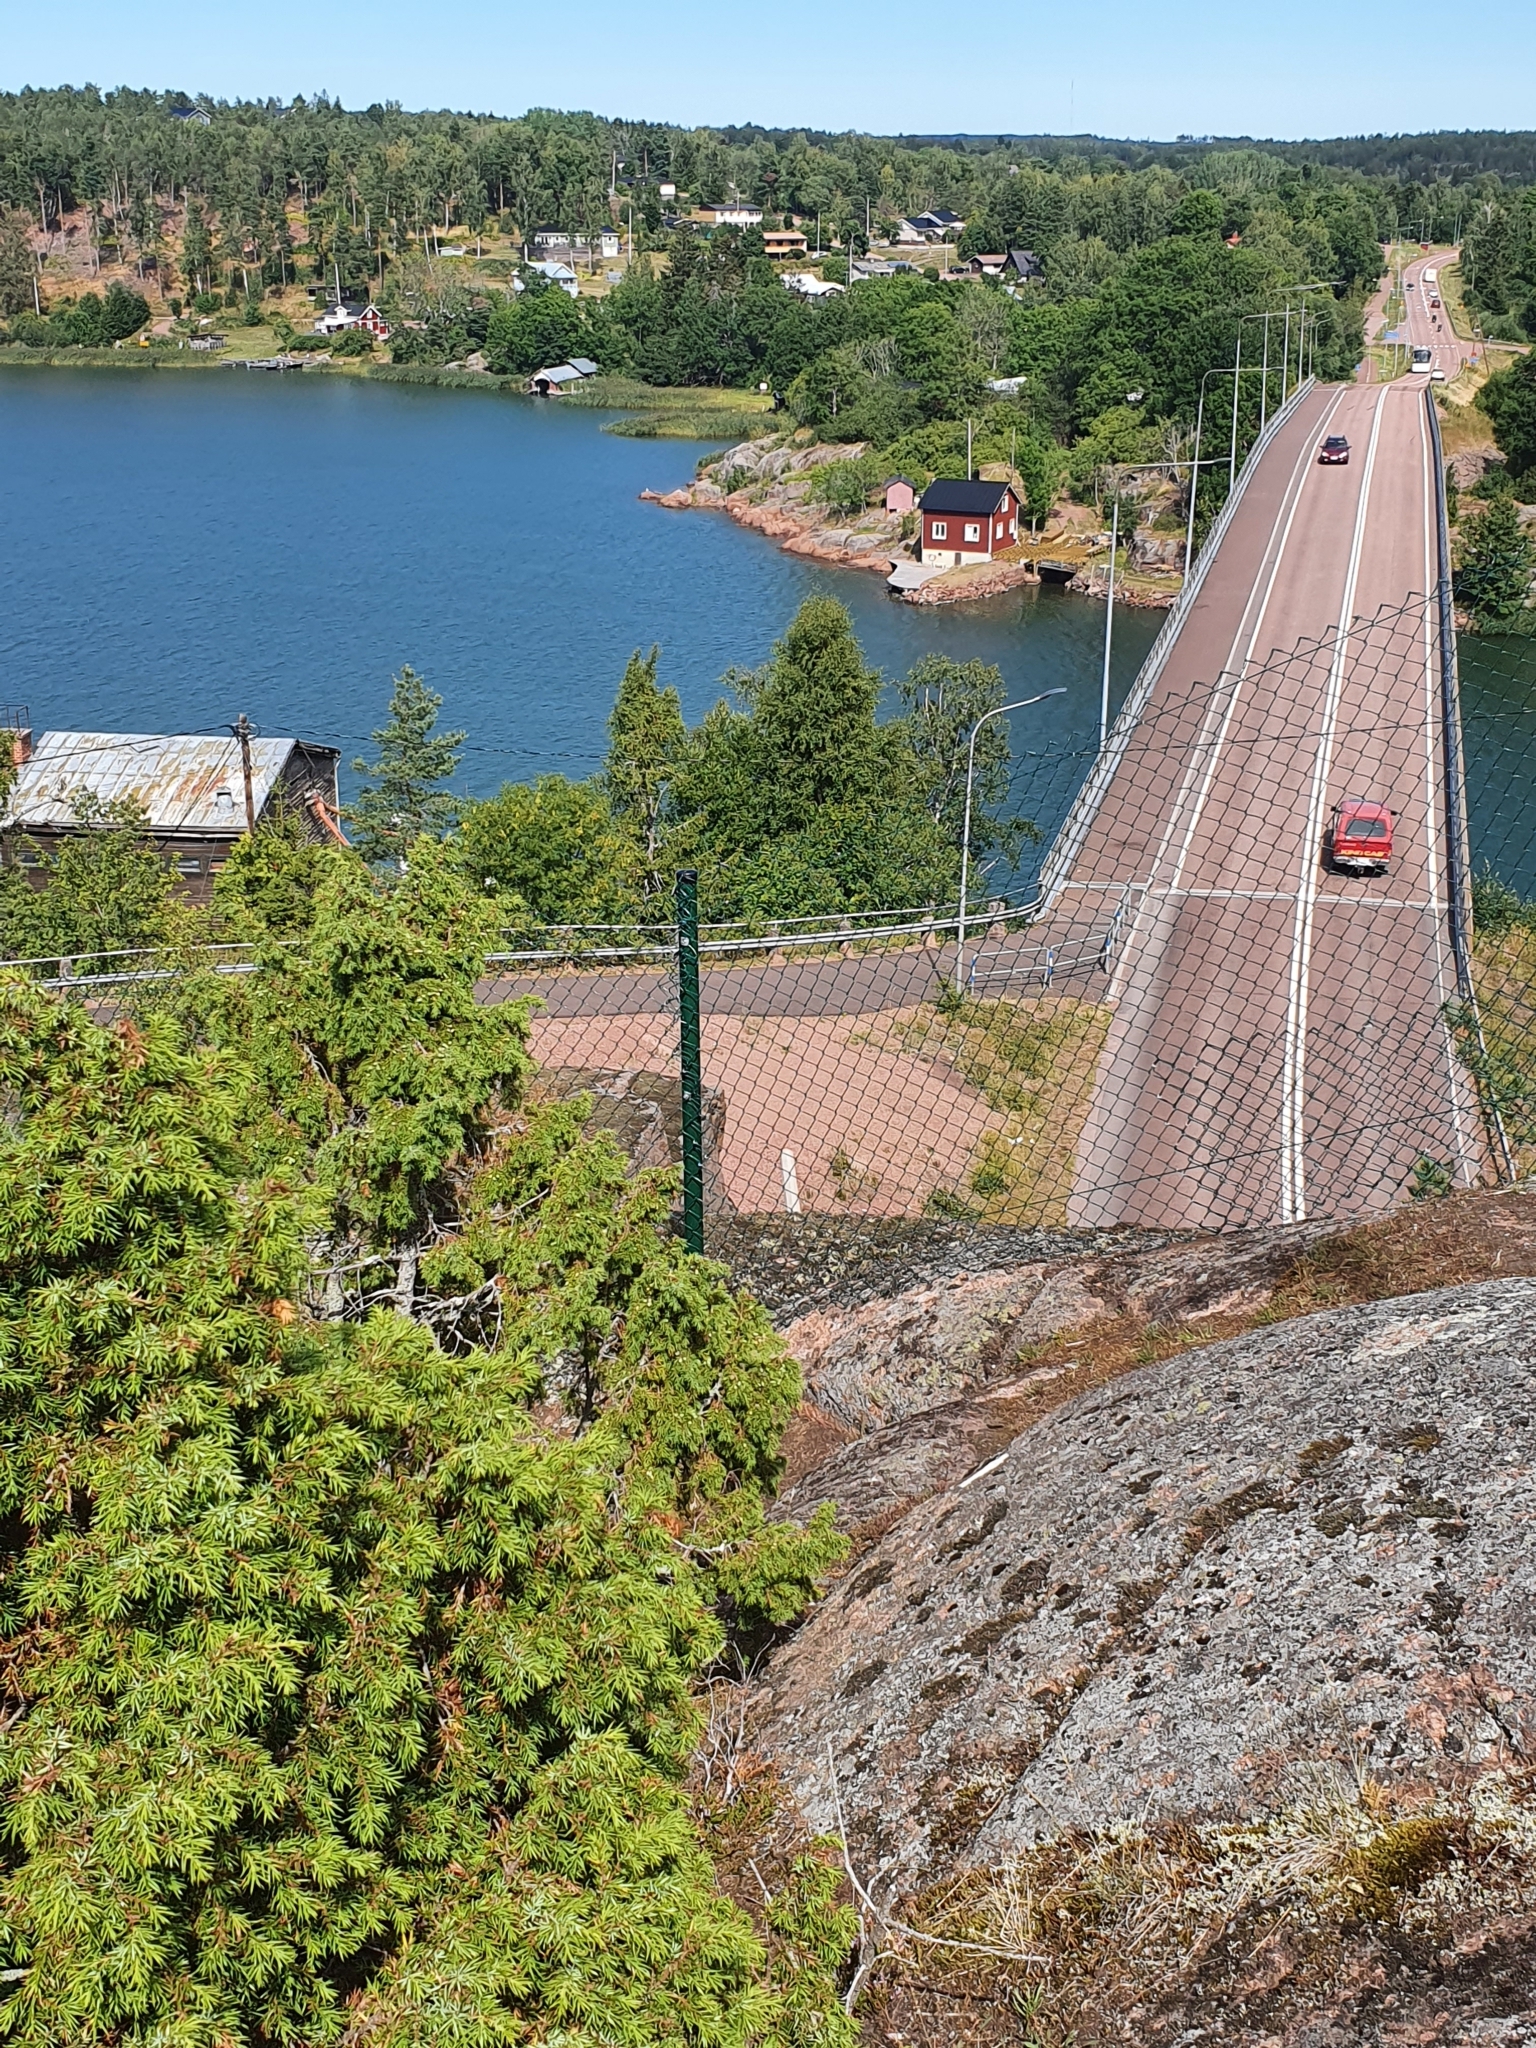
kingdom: Plantae
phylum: Tracheophyta
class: Pinopsida
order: Pinales
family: Cupressaceae
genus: Juniperus
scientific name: Juniperus communis
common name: Common juniper
